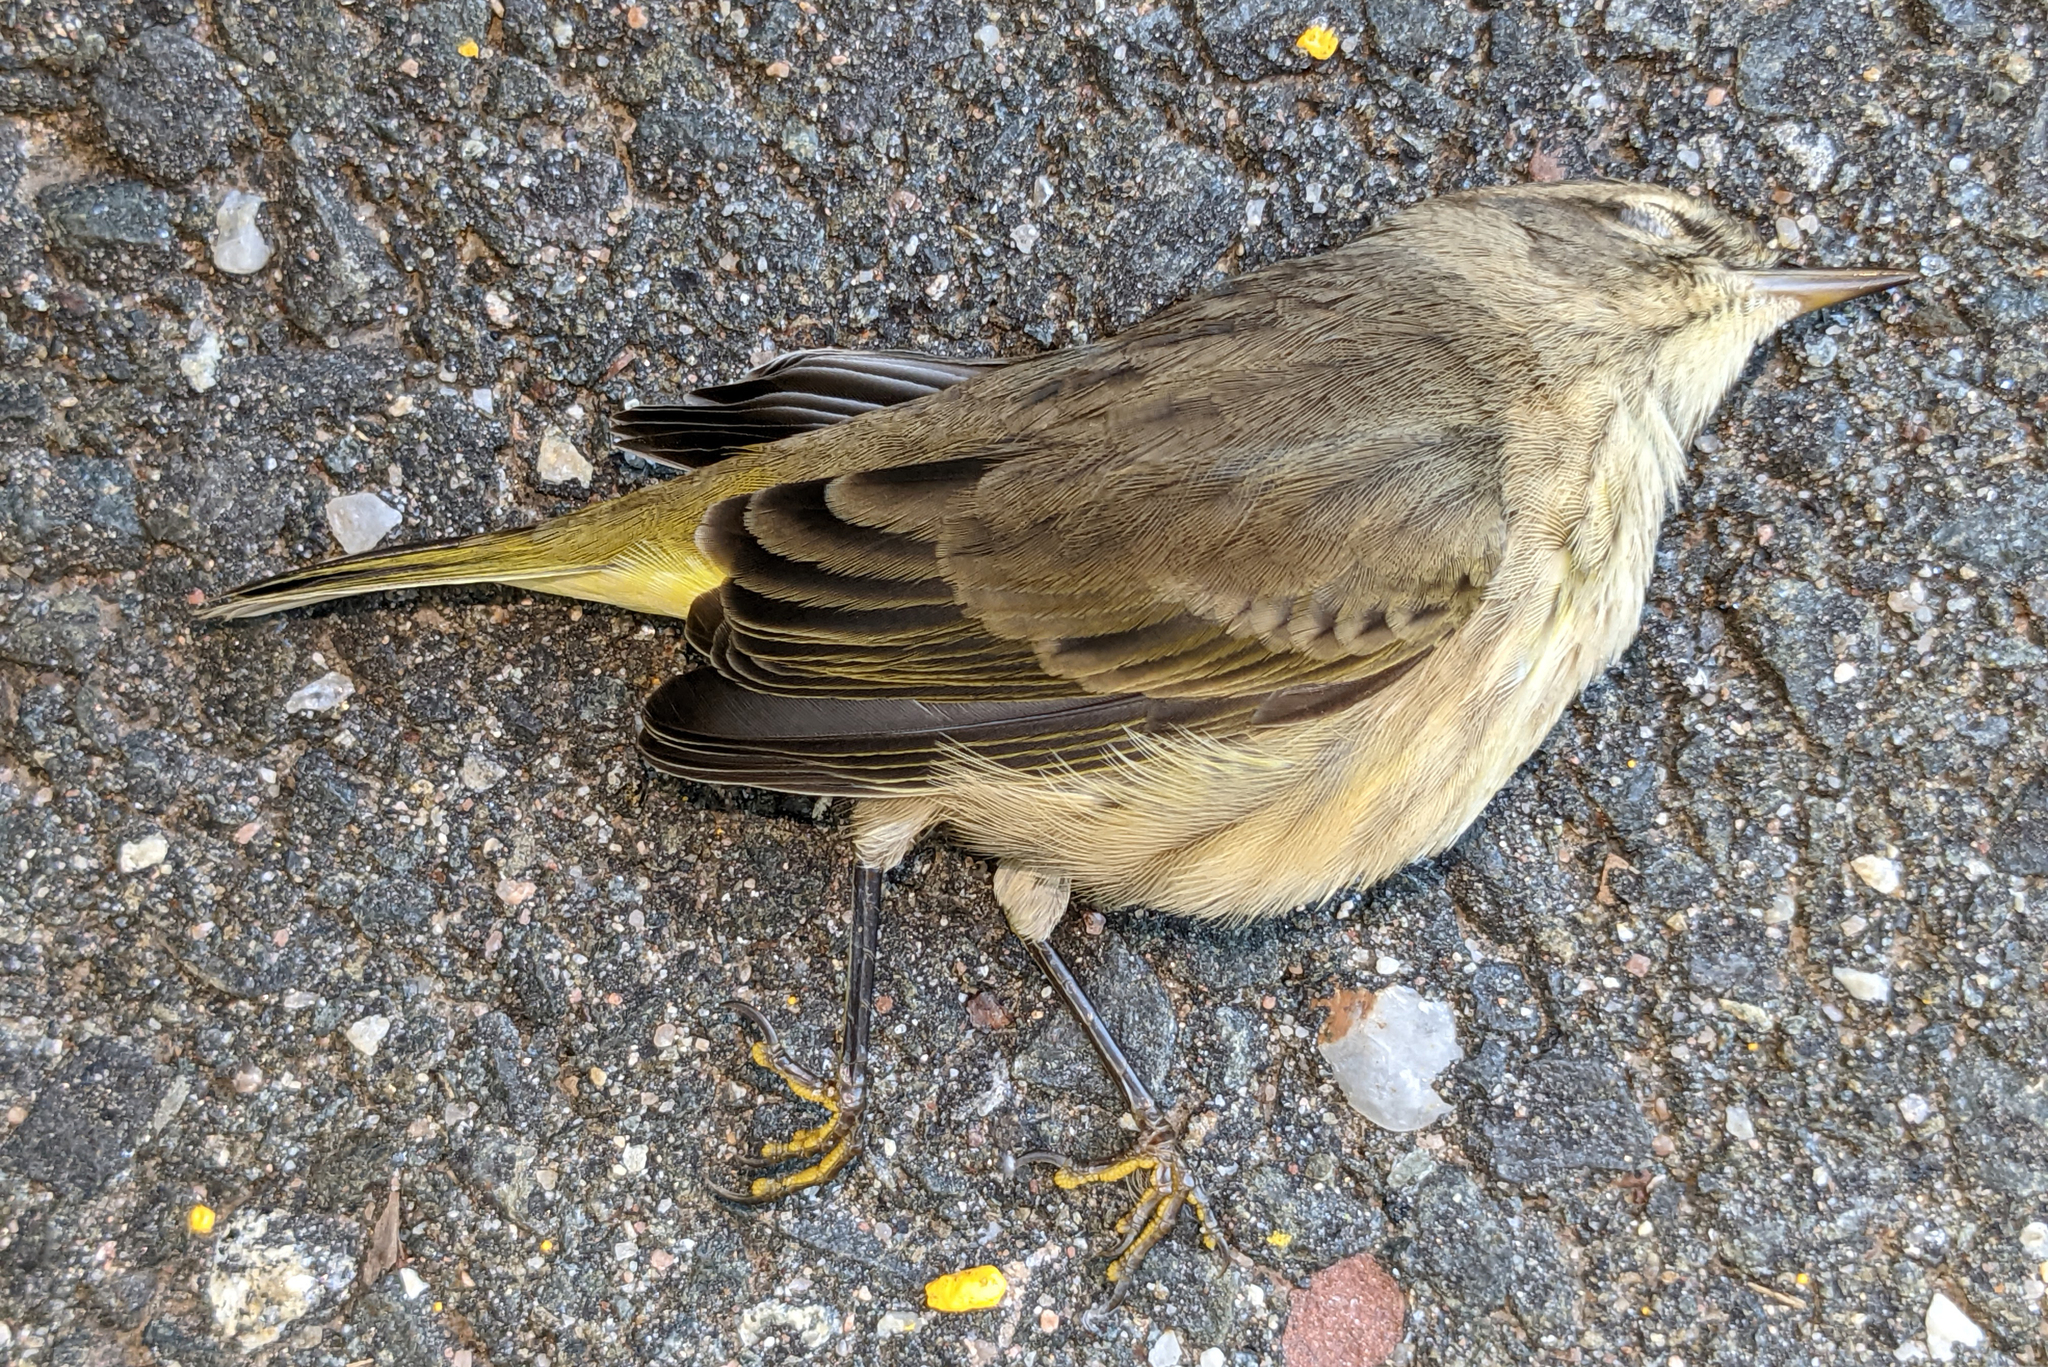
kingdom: Animalia
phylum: Chordata
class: Aves
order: Passeriformes
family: Parulidae
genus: Setophaga
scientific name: Setophaga palmarum
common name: Palm warbler
